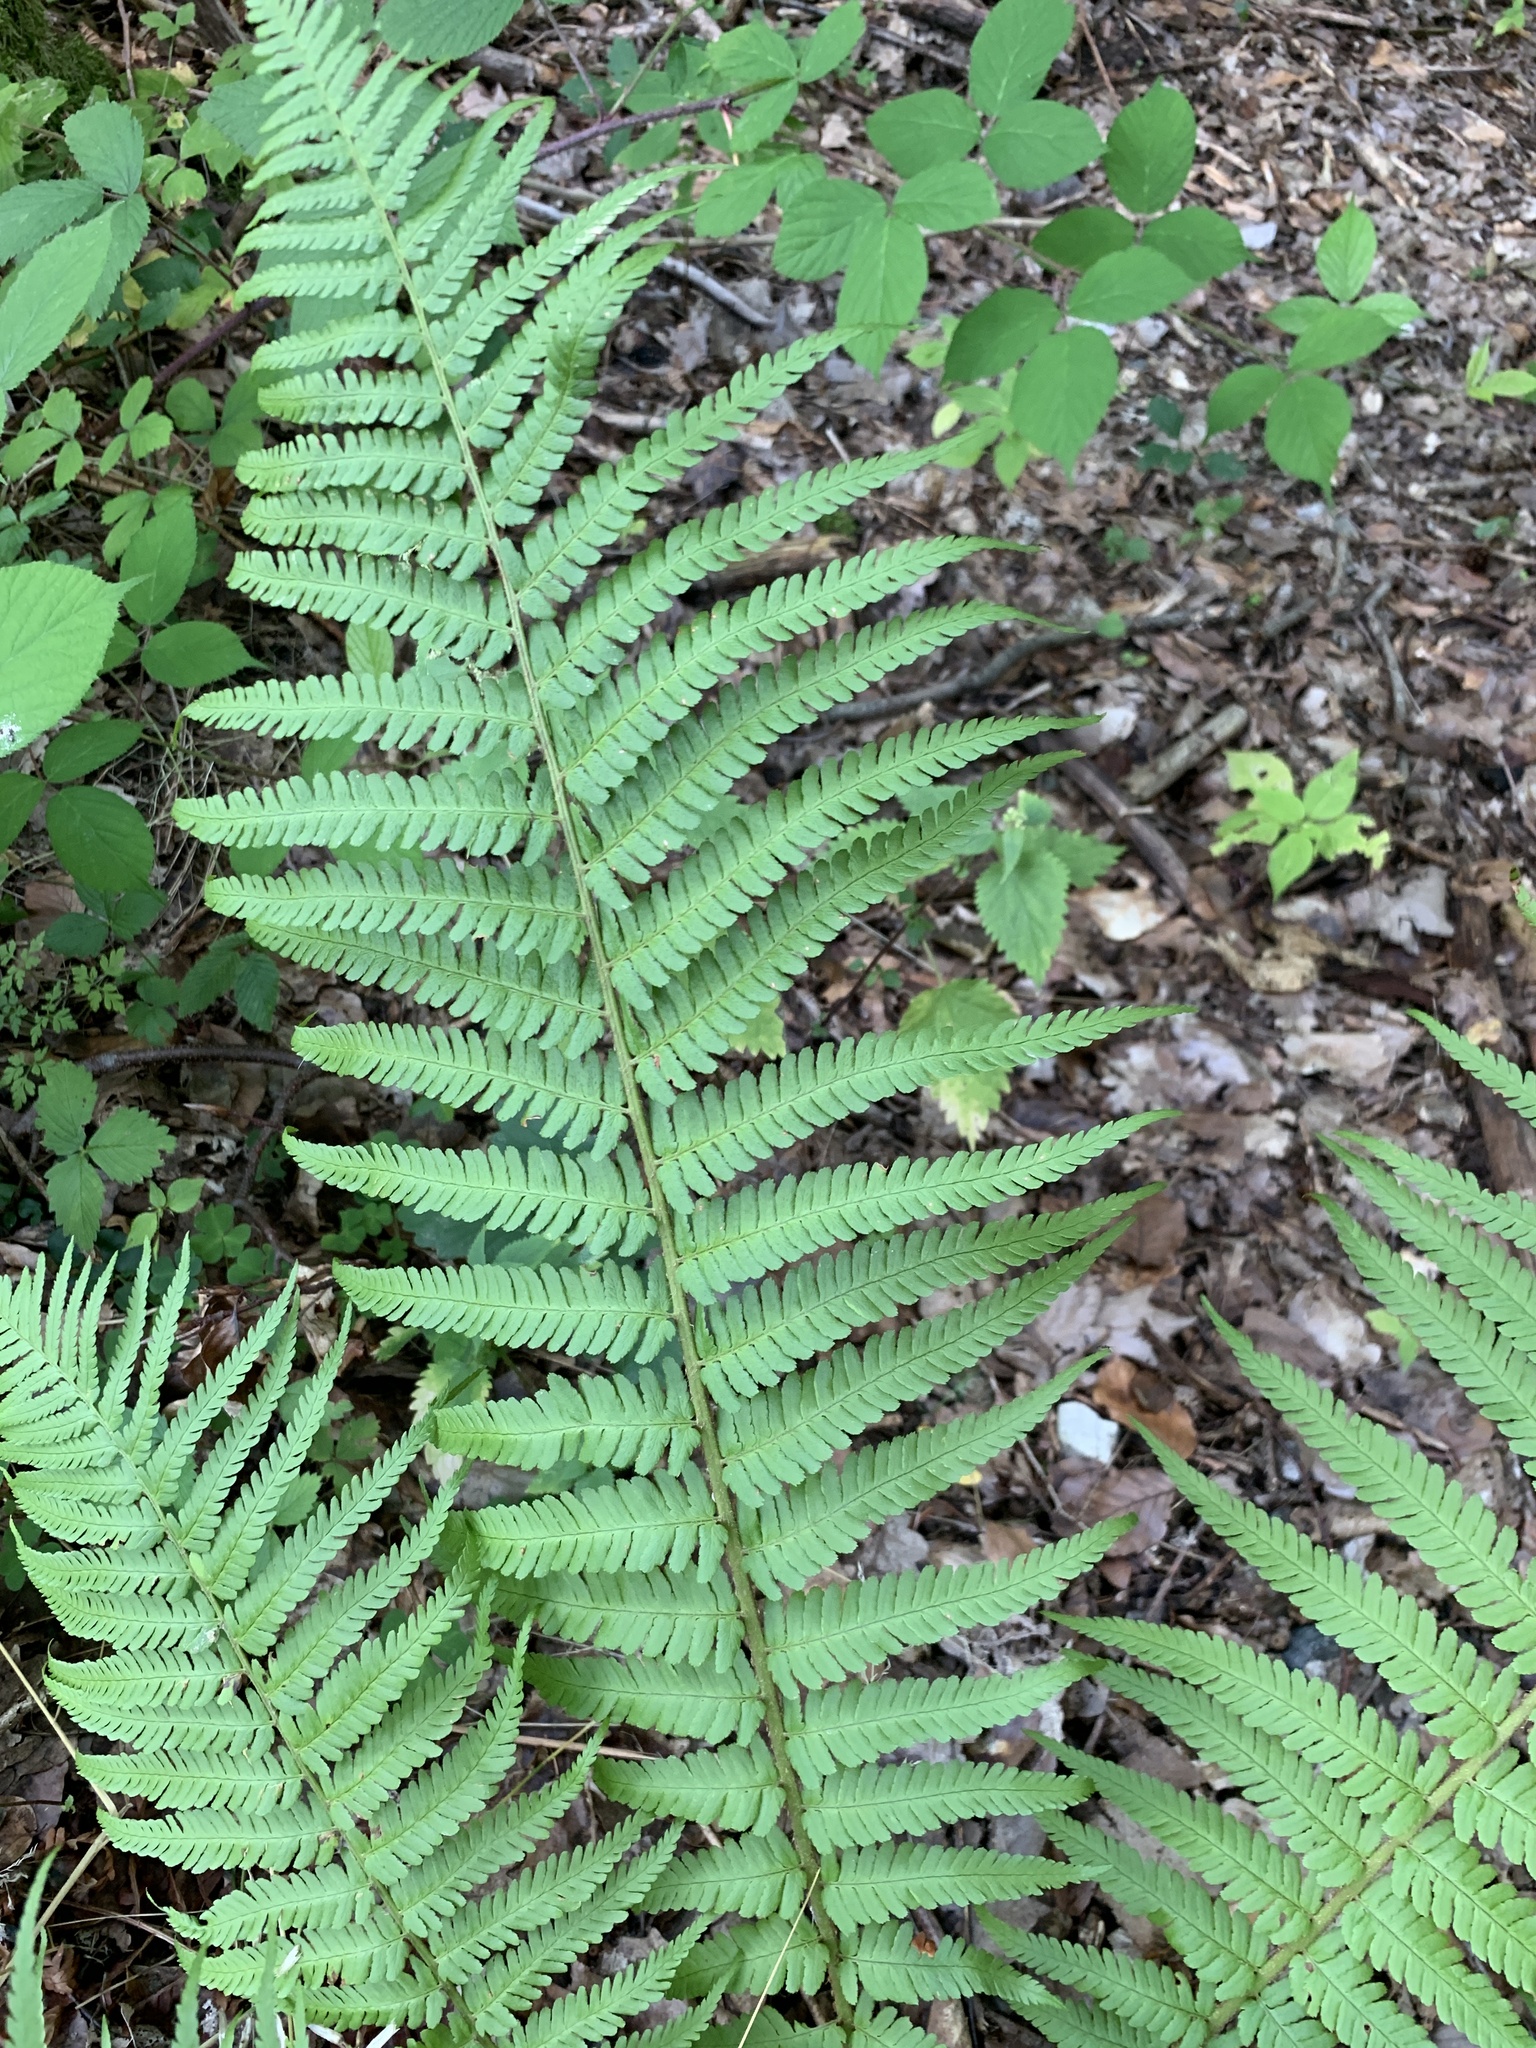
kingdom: Plantae
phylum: Tracheophyta
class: Polypodiopsida
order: Polypodiales
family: Dryopteridaceae
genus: Dryopteris
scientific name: Dryopteris filix-mas
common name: Male fern
